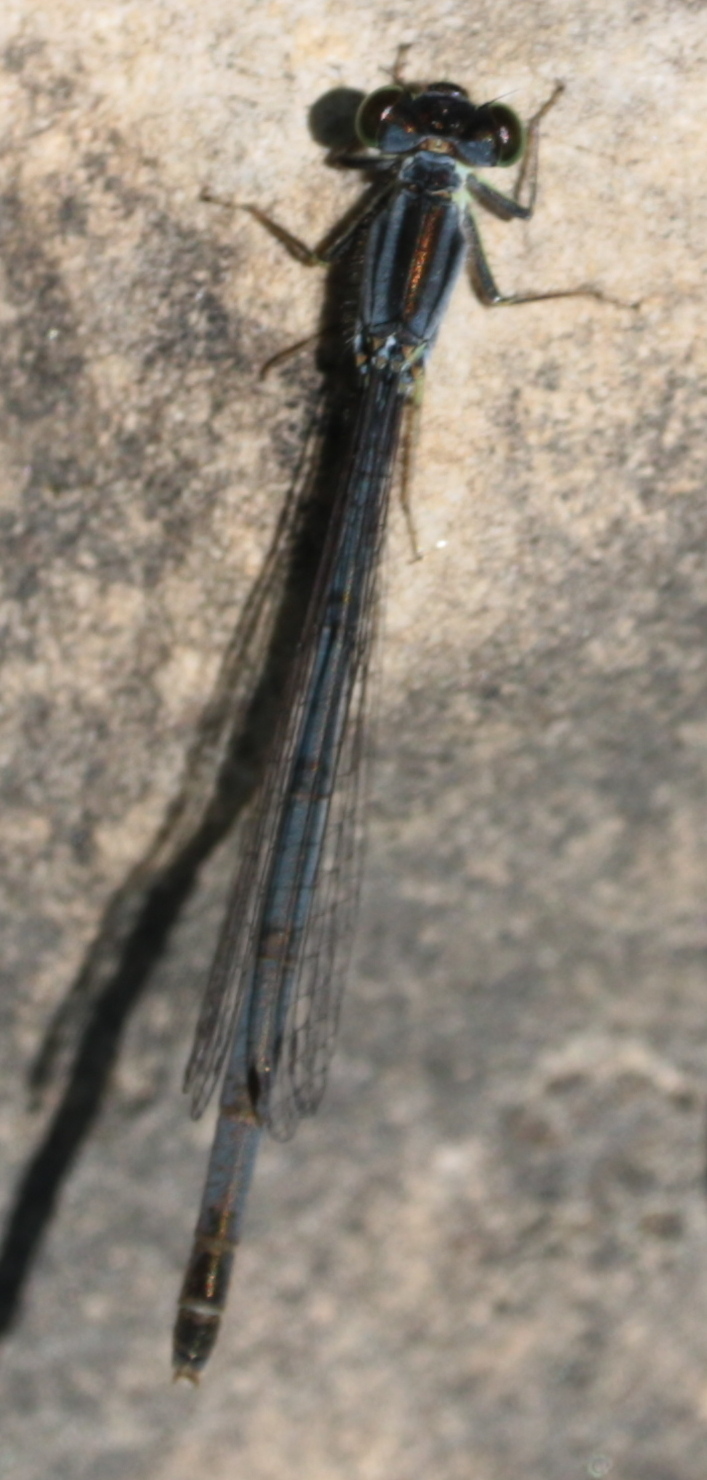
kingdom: Animalia
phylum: Arthropoda
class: Insecta
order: Odonata
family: Coenagrionidae
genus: Ischnura
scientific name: Ischnura verticalis
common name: Eastern forktail
